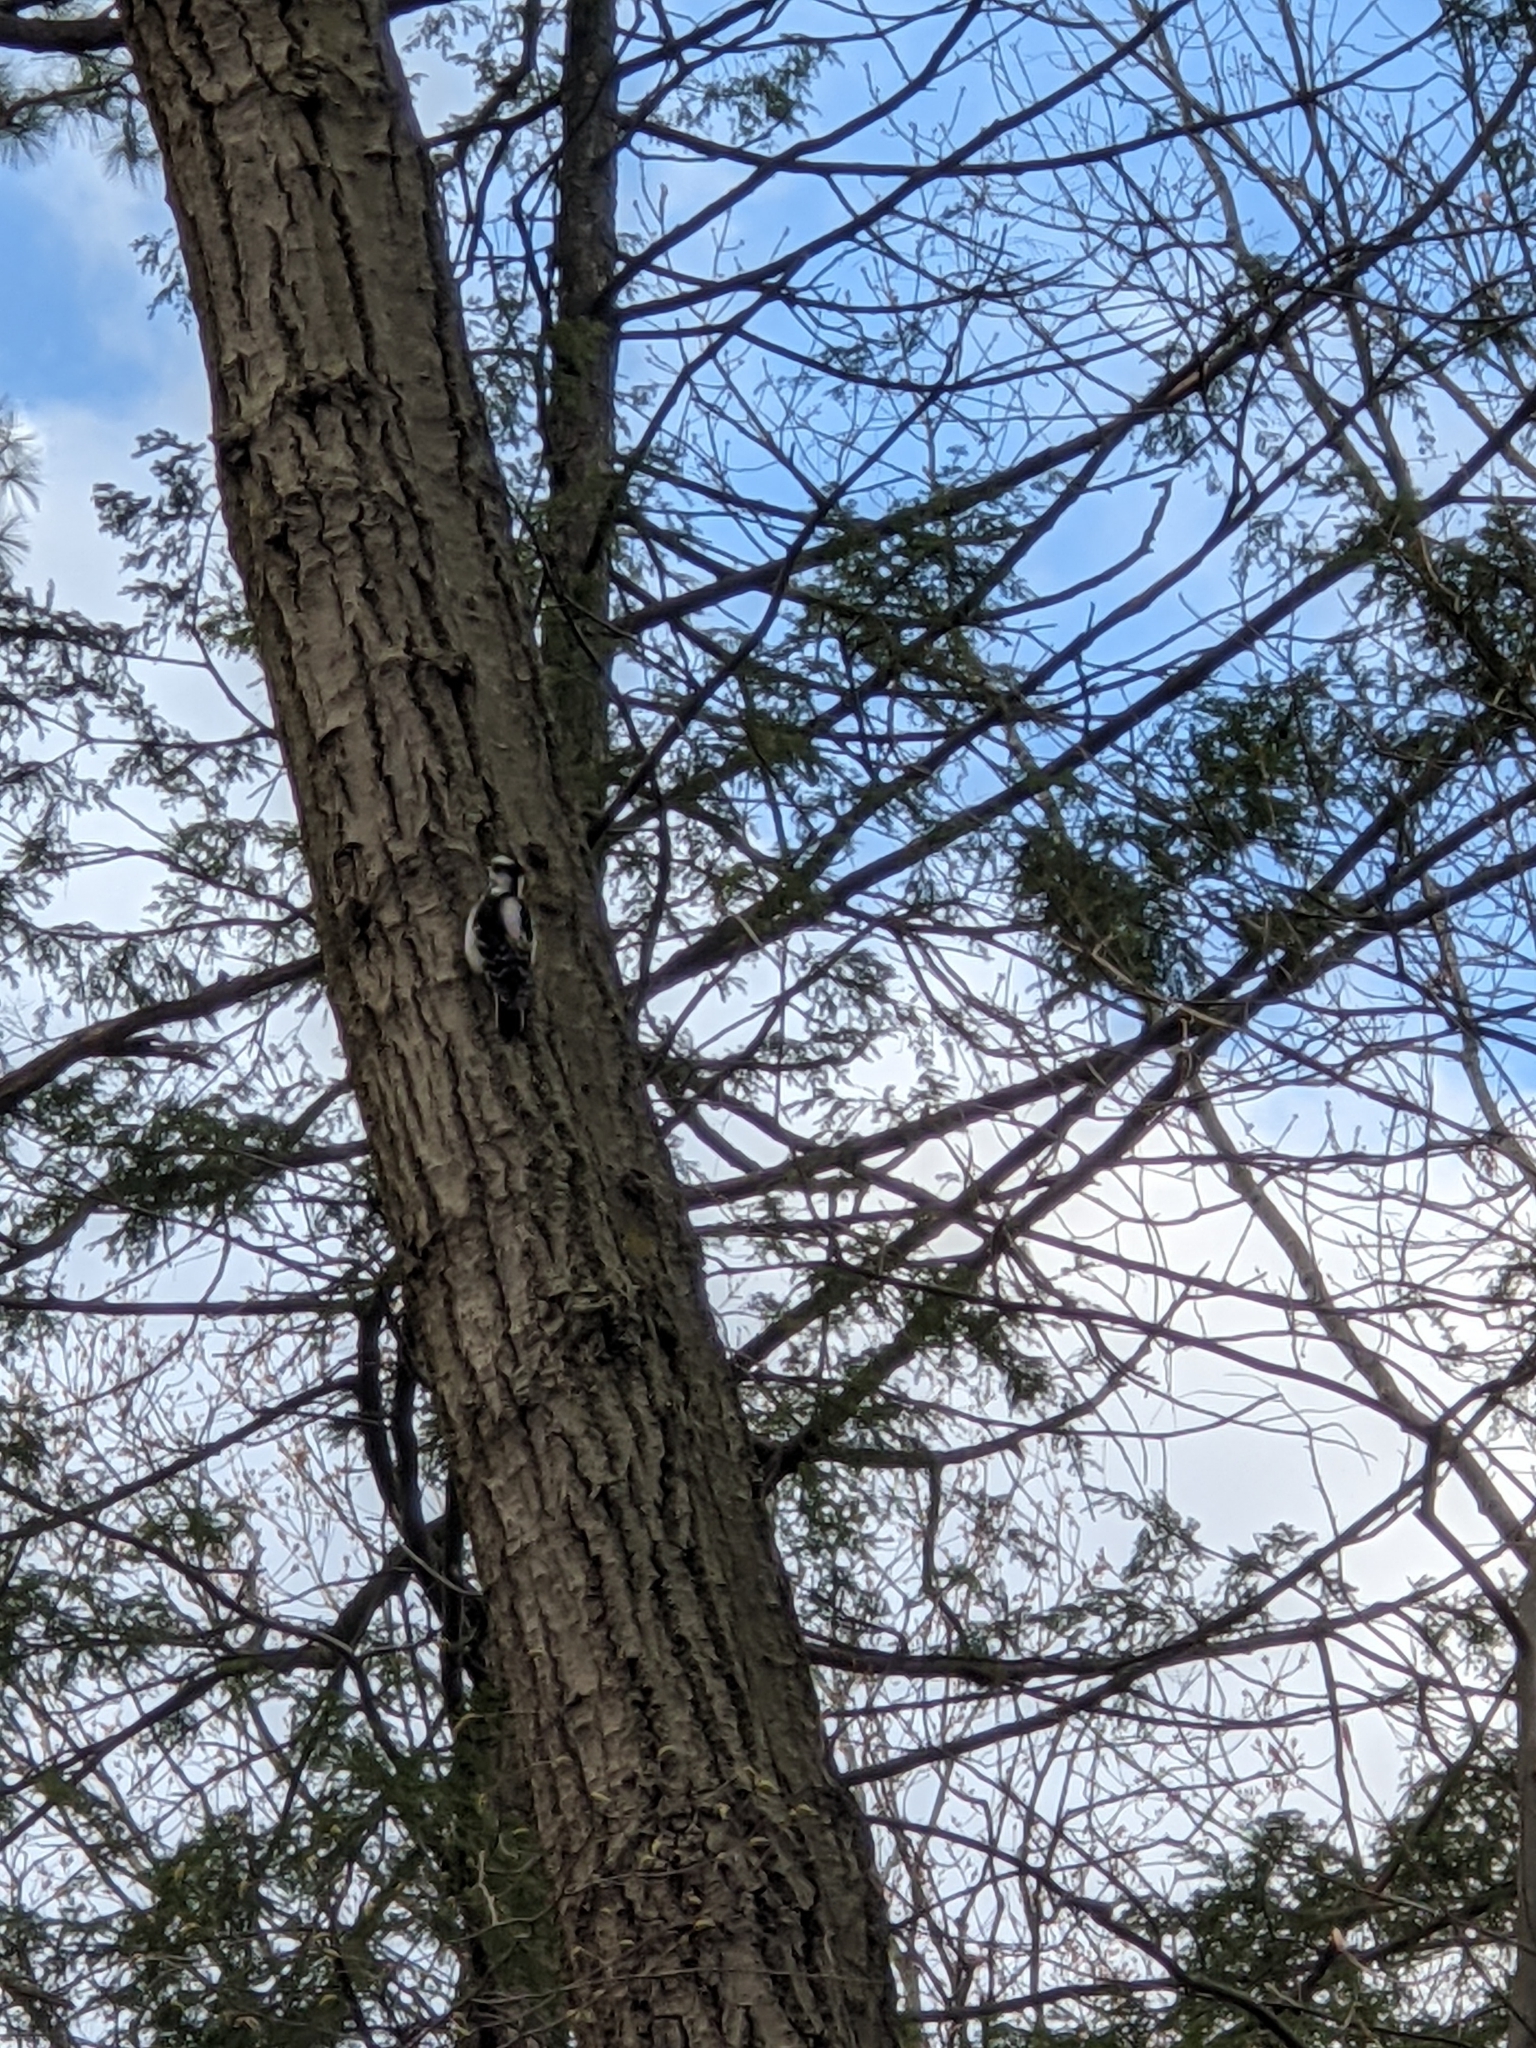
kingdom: Animalia
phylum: Chordata
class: Aves
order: Piciformes
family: Picidae
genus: Leuconotopicus
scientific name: Leuconotopicus villosus
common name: Hairy woodpecker
